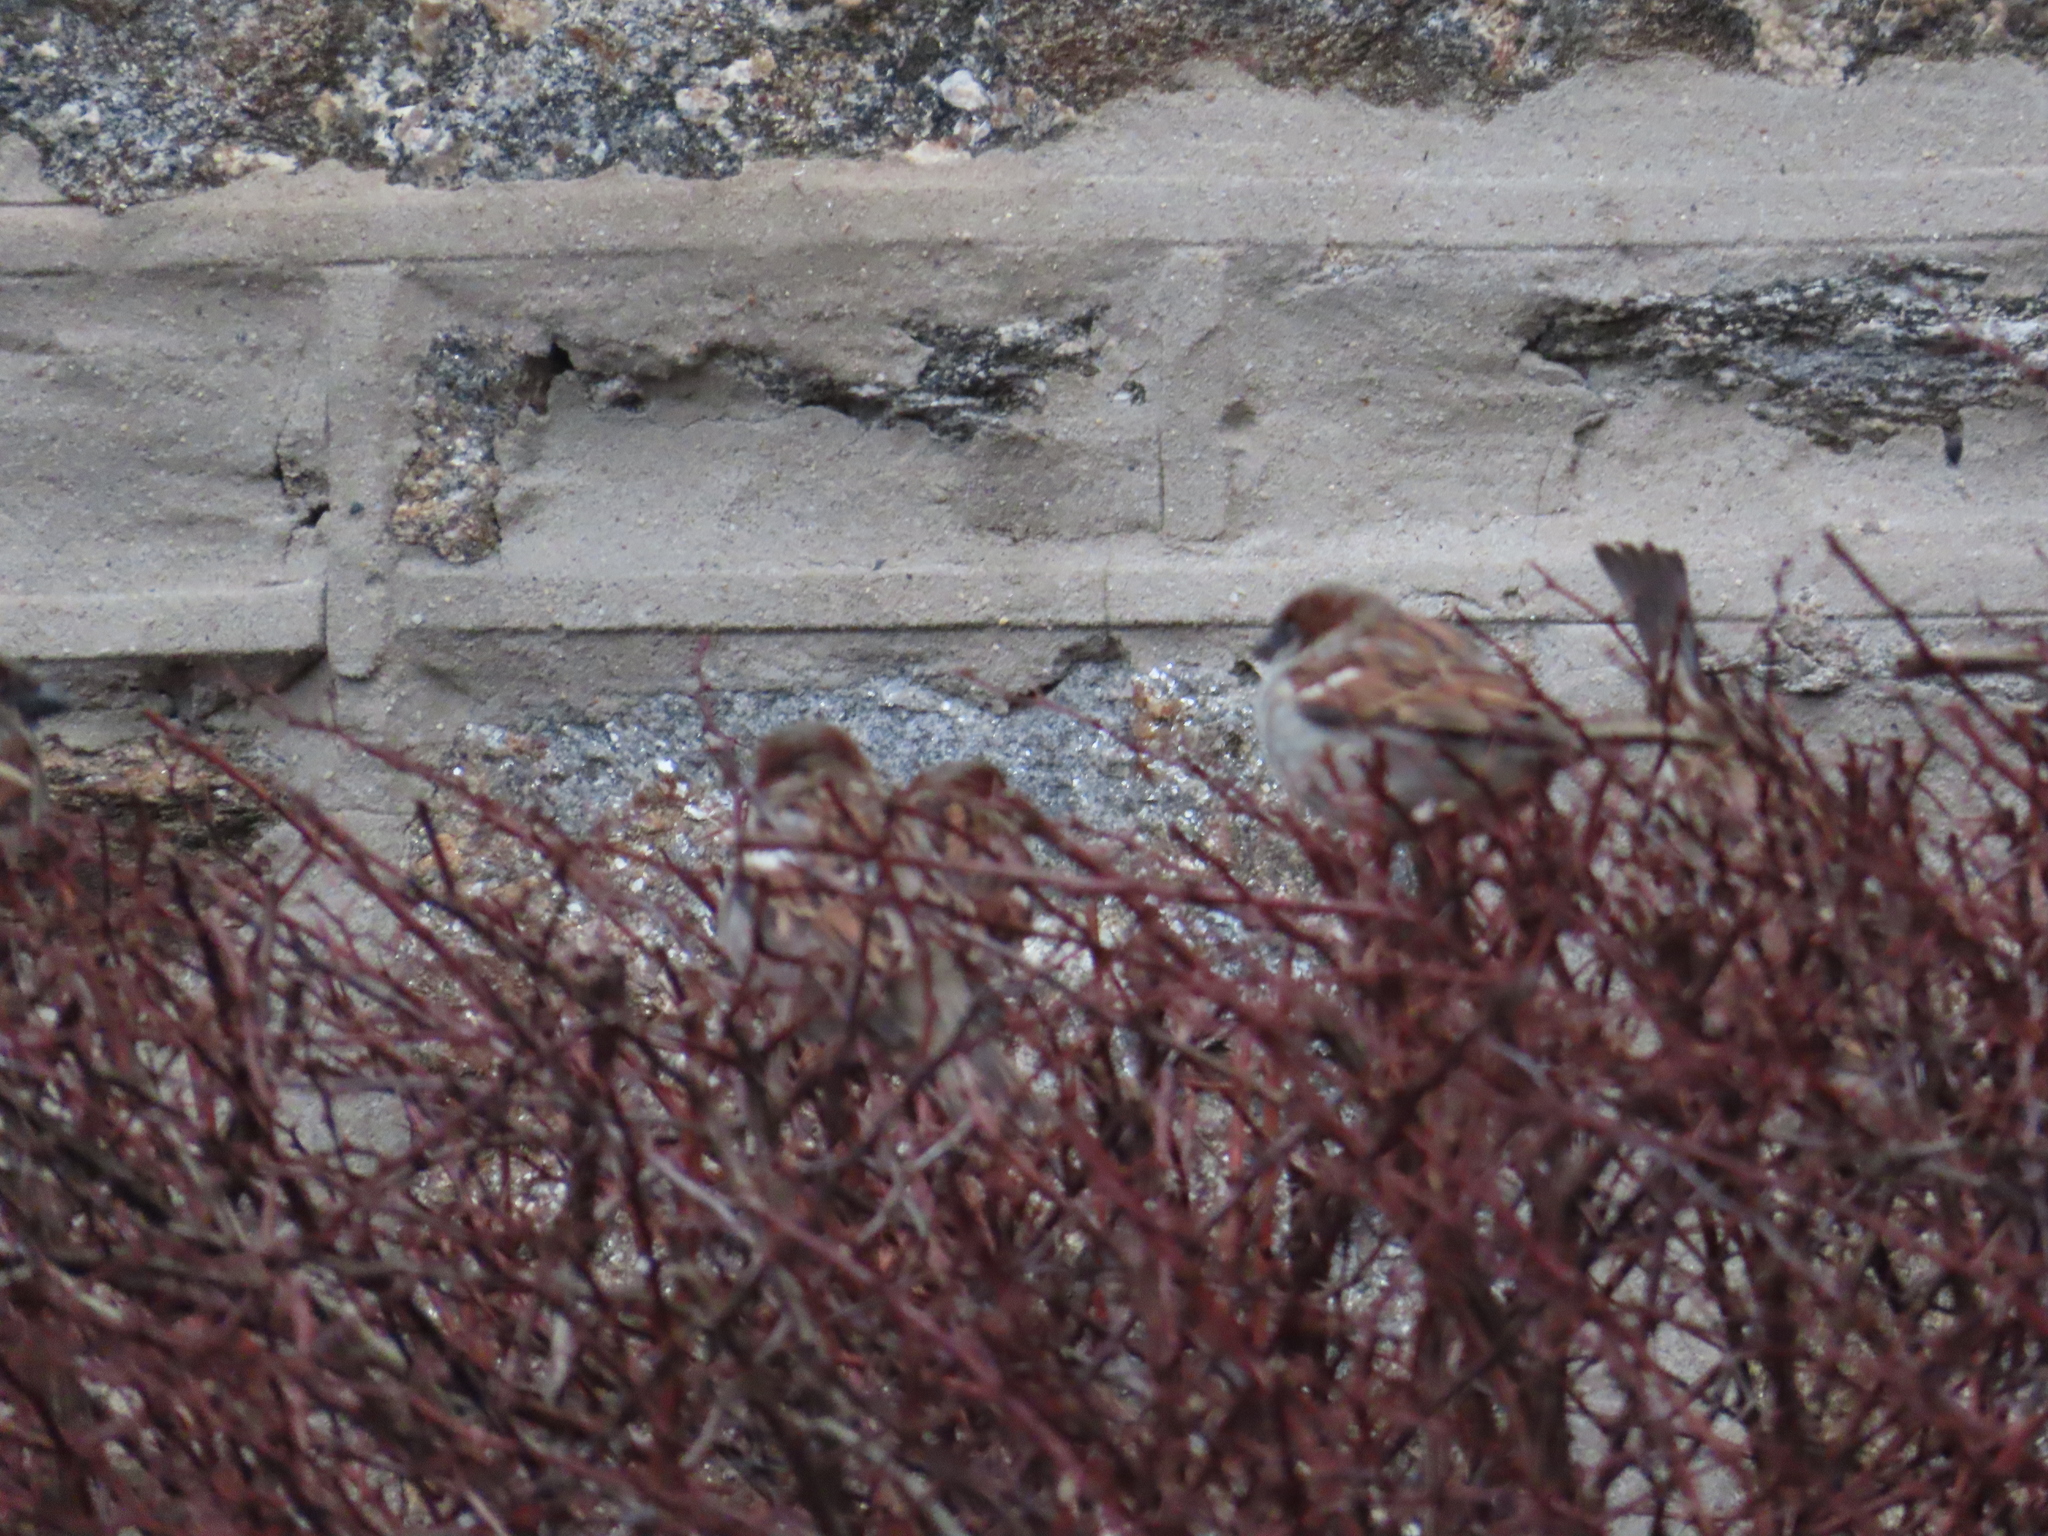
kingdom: Animalia
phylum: Chordata
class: Aves
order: Passeriformes
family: Passeridae
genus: Passer
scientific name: Passer domesticus
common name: House sparrow
